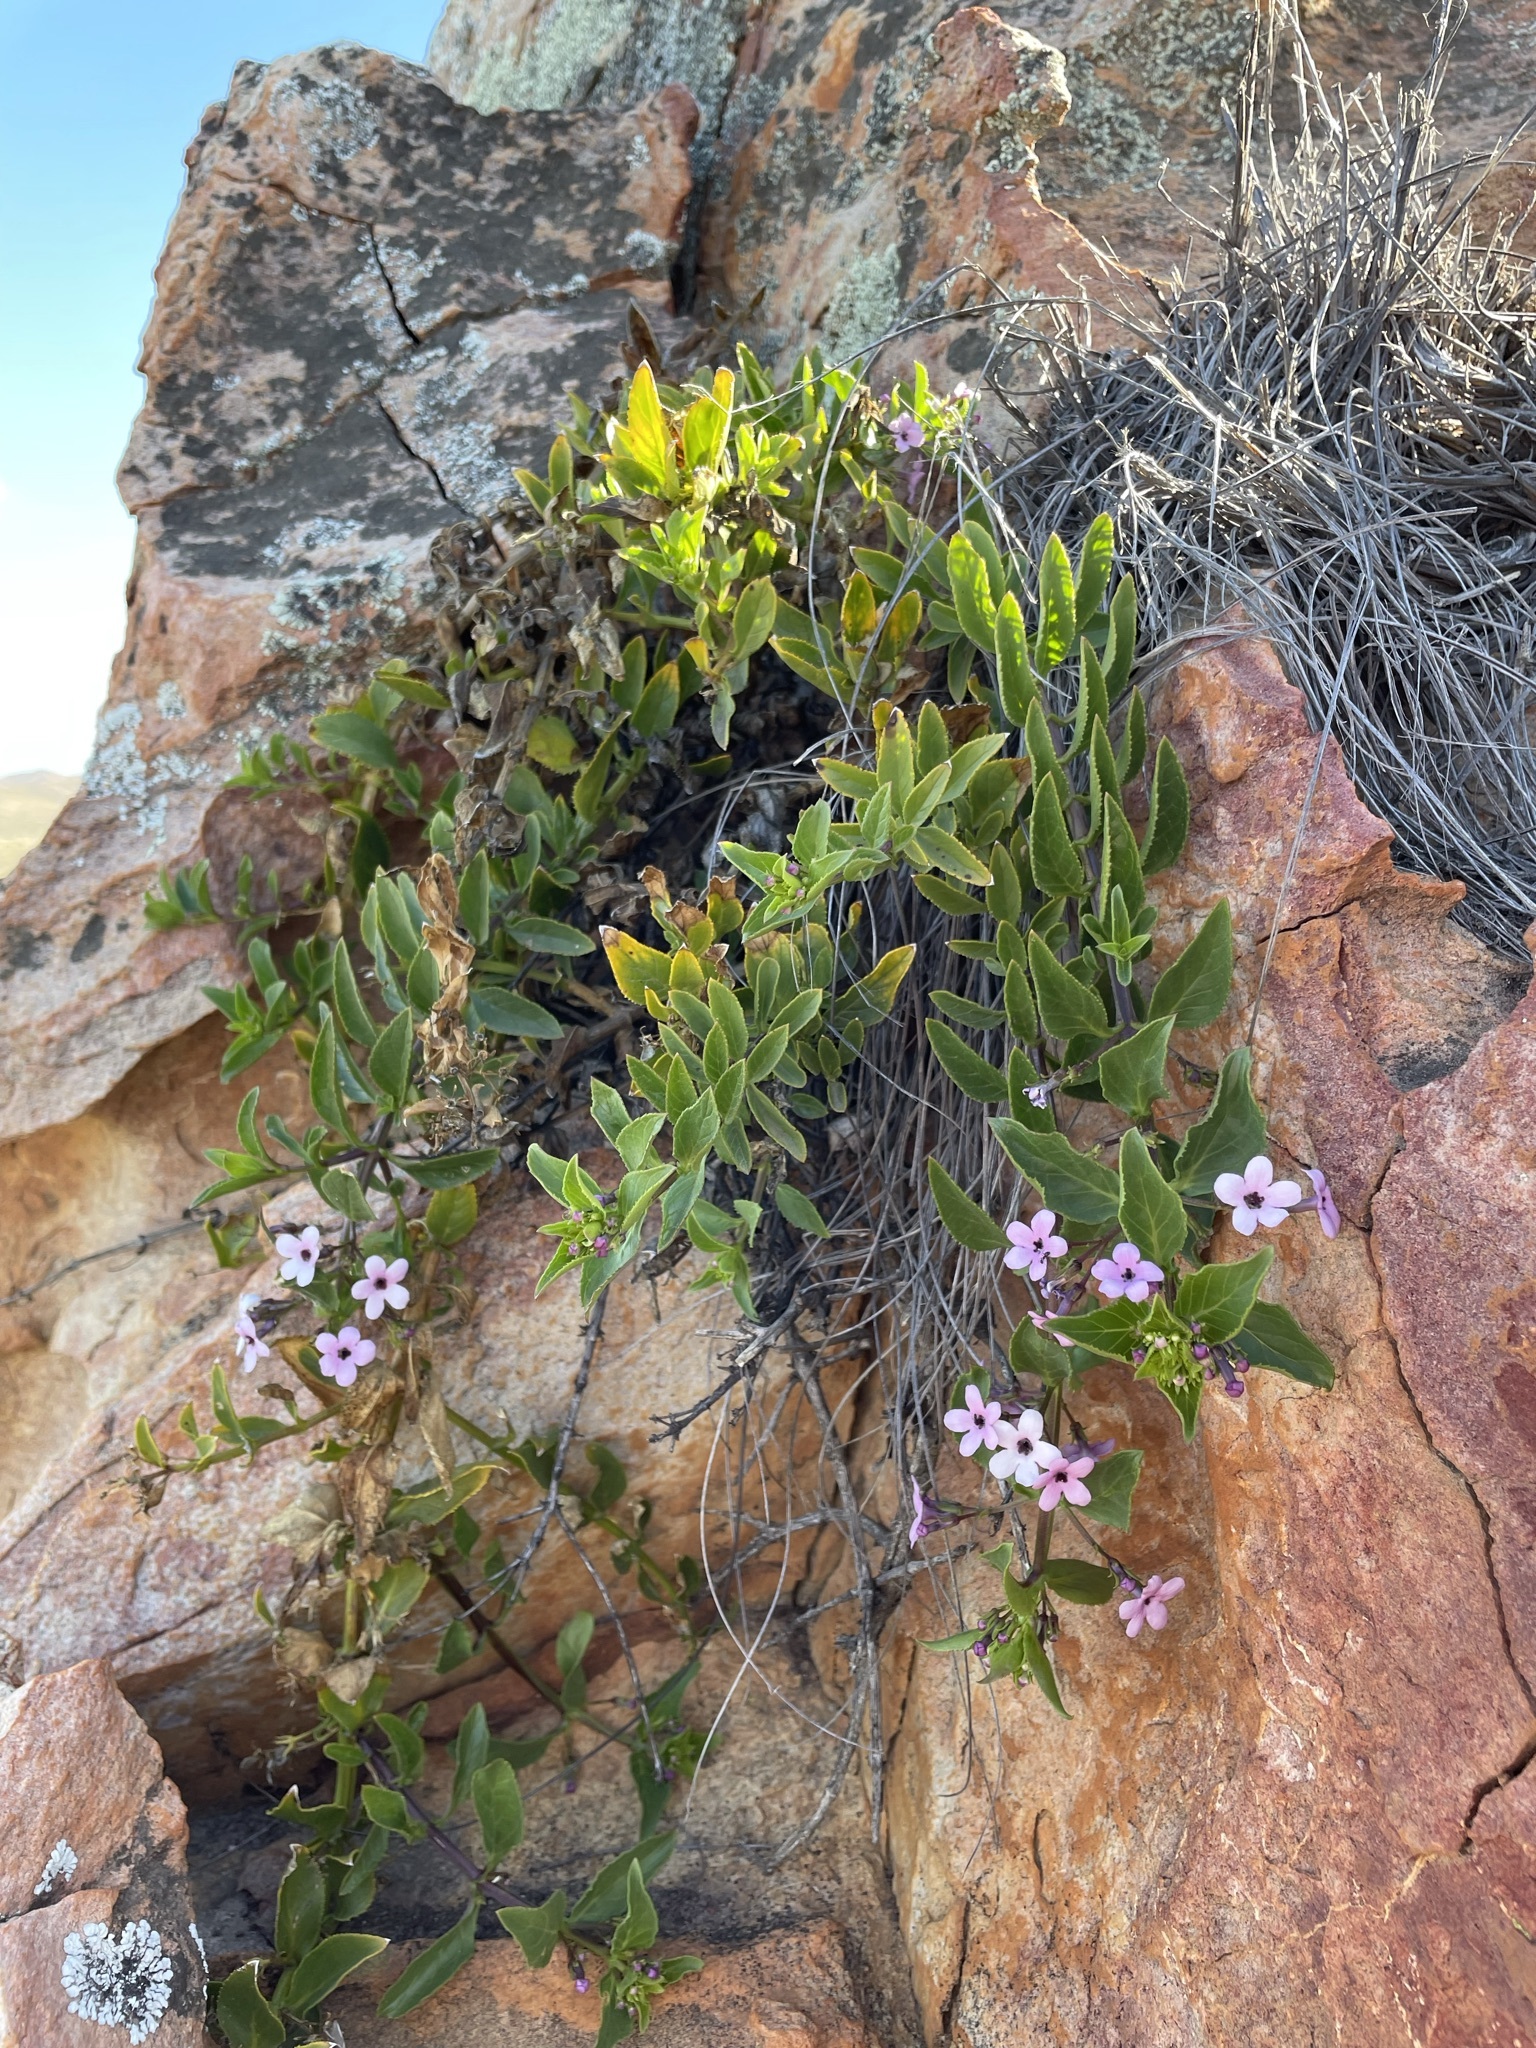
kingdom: Plantae
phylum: Tracheophyta
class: Magnoliopsida
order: Lamiales
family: Scrophulariaceae
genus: Teedia
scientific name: Teedia lucida
